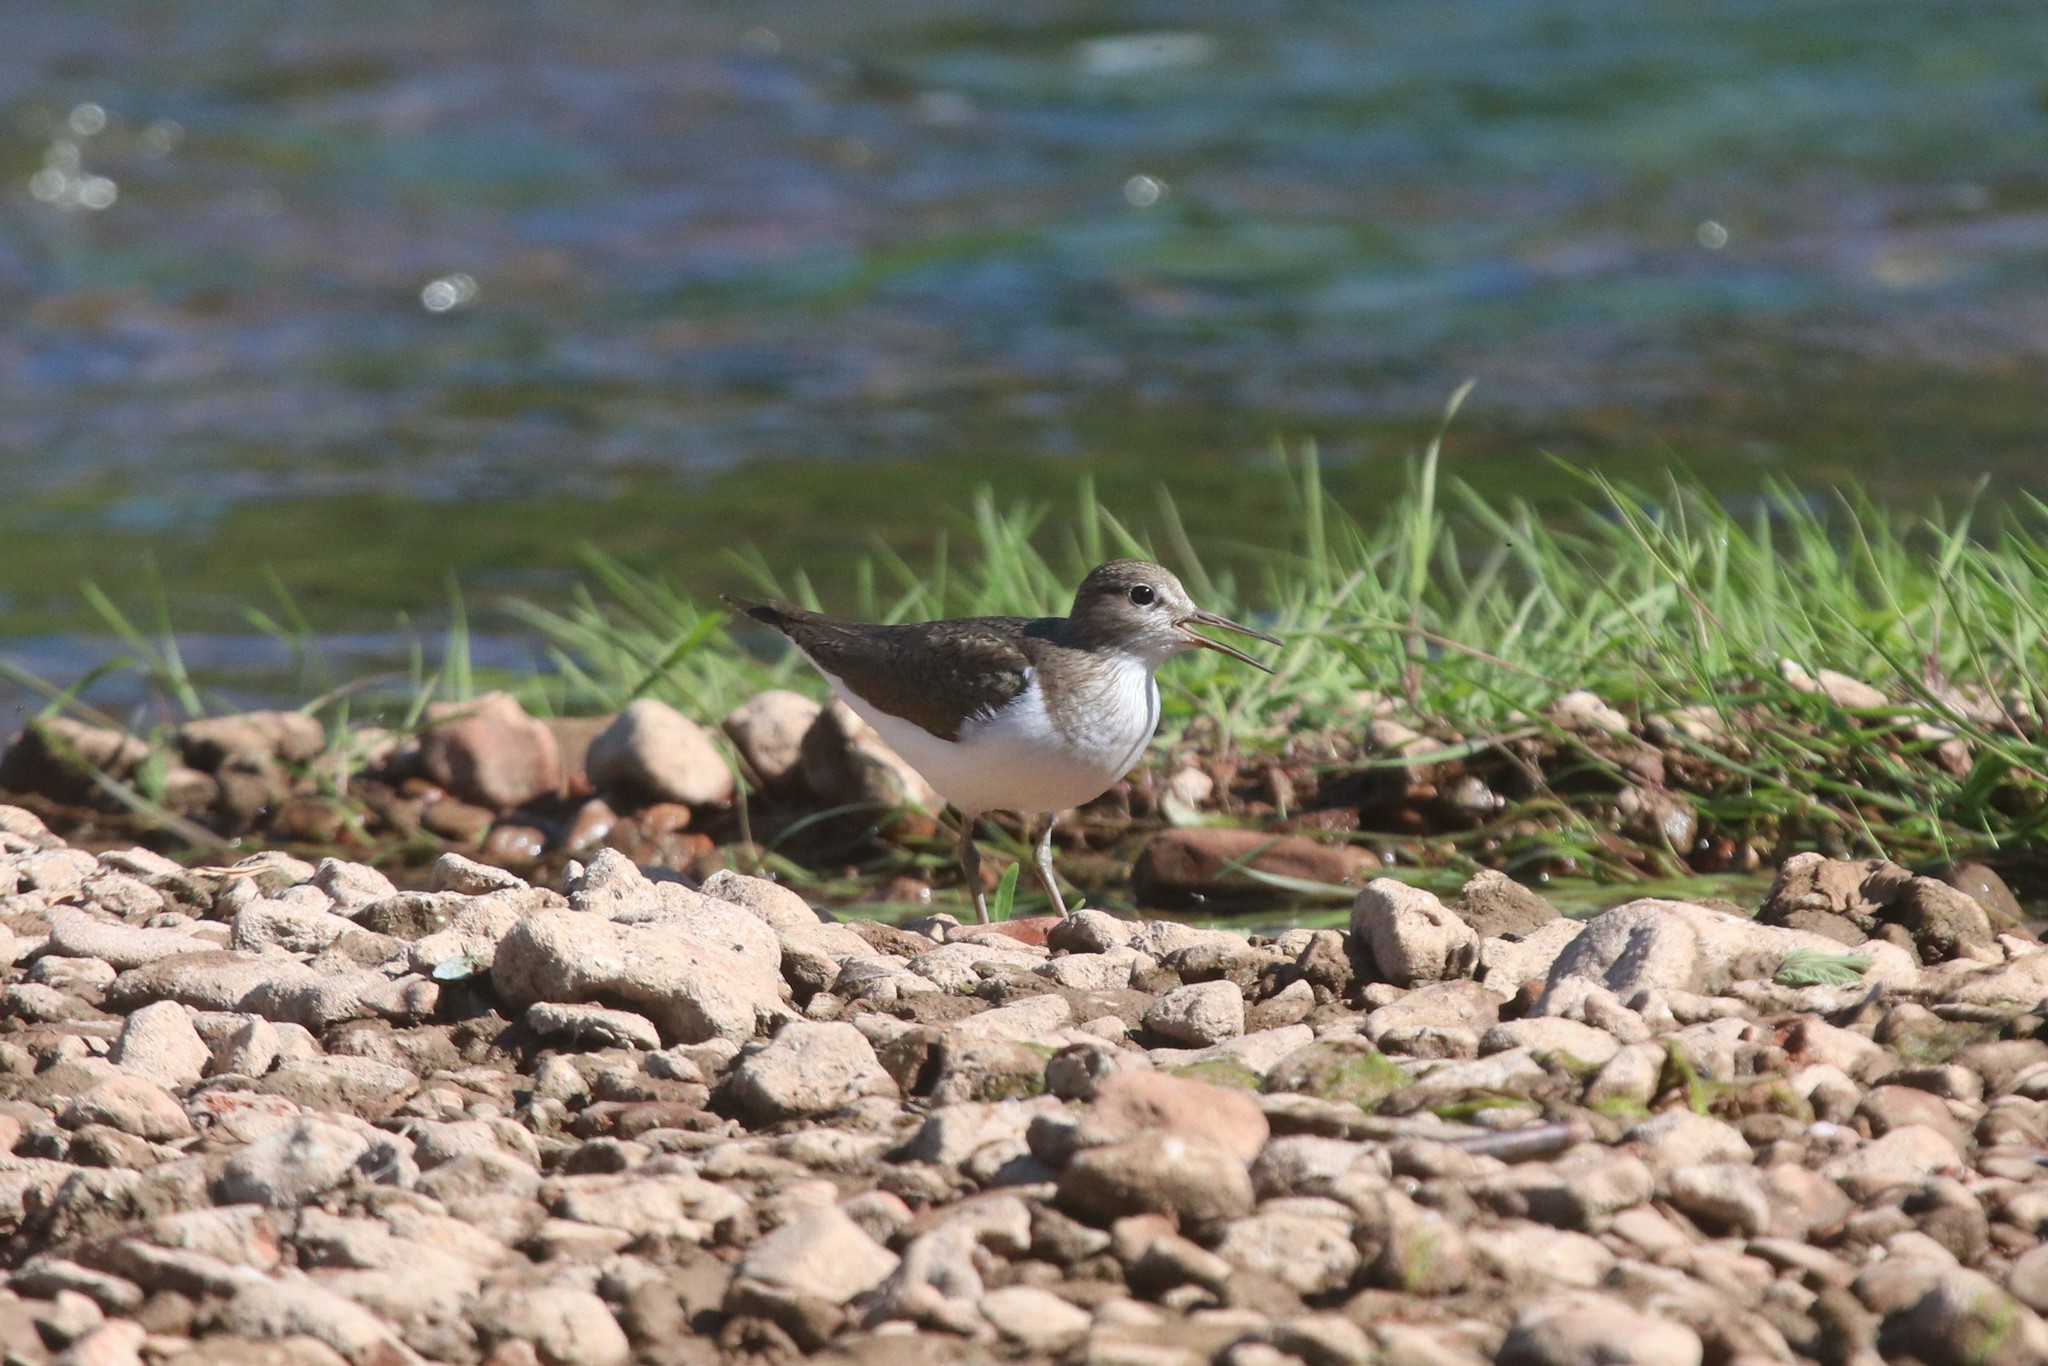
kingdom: Animalia
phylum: Chordata
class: Aves
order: Charadriiformes
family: Scolopacidae
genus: Actitis
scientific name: Actitis hypoleucos
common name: Common sandpiper
